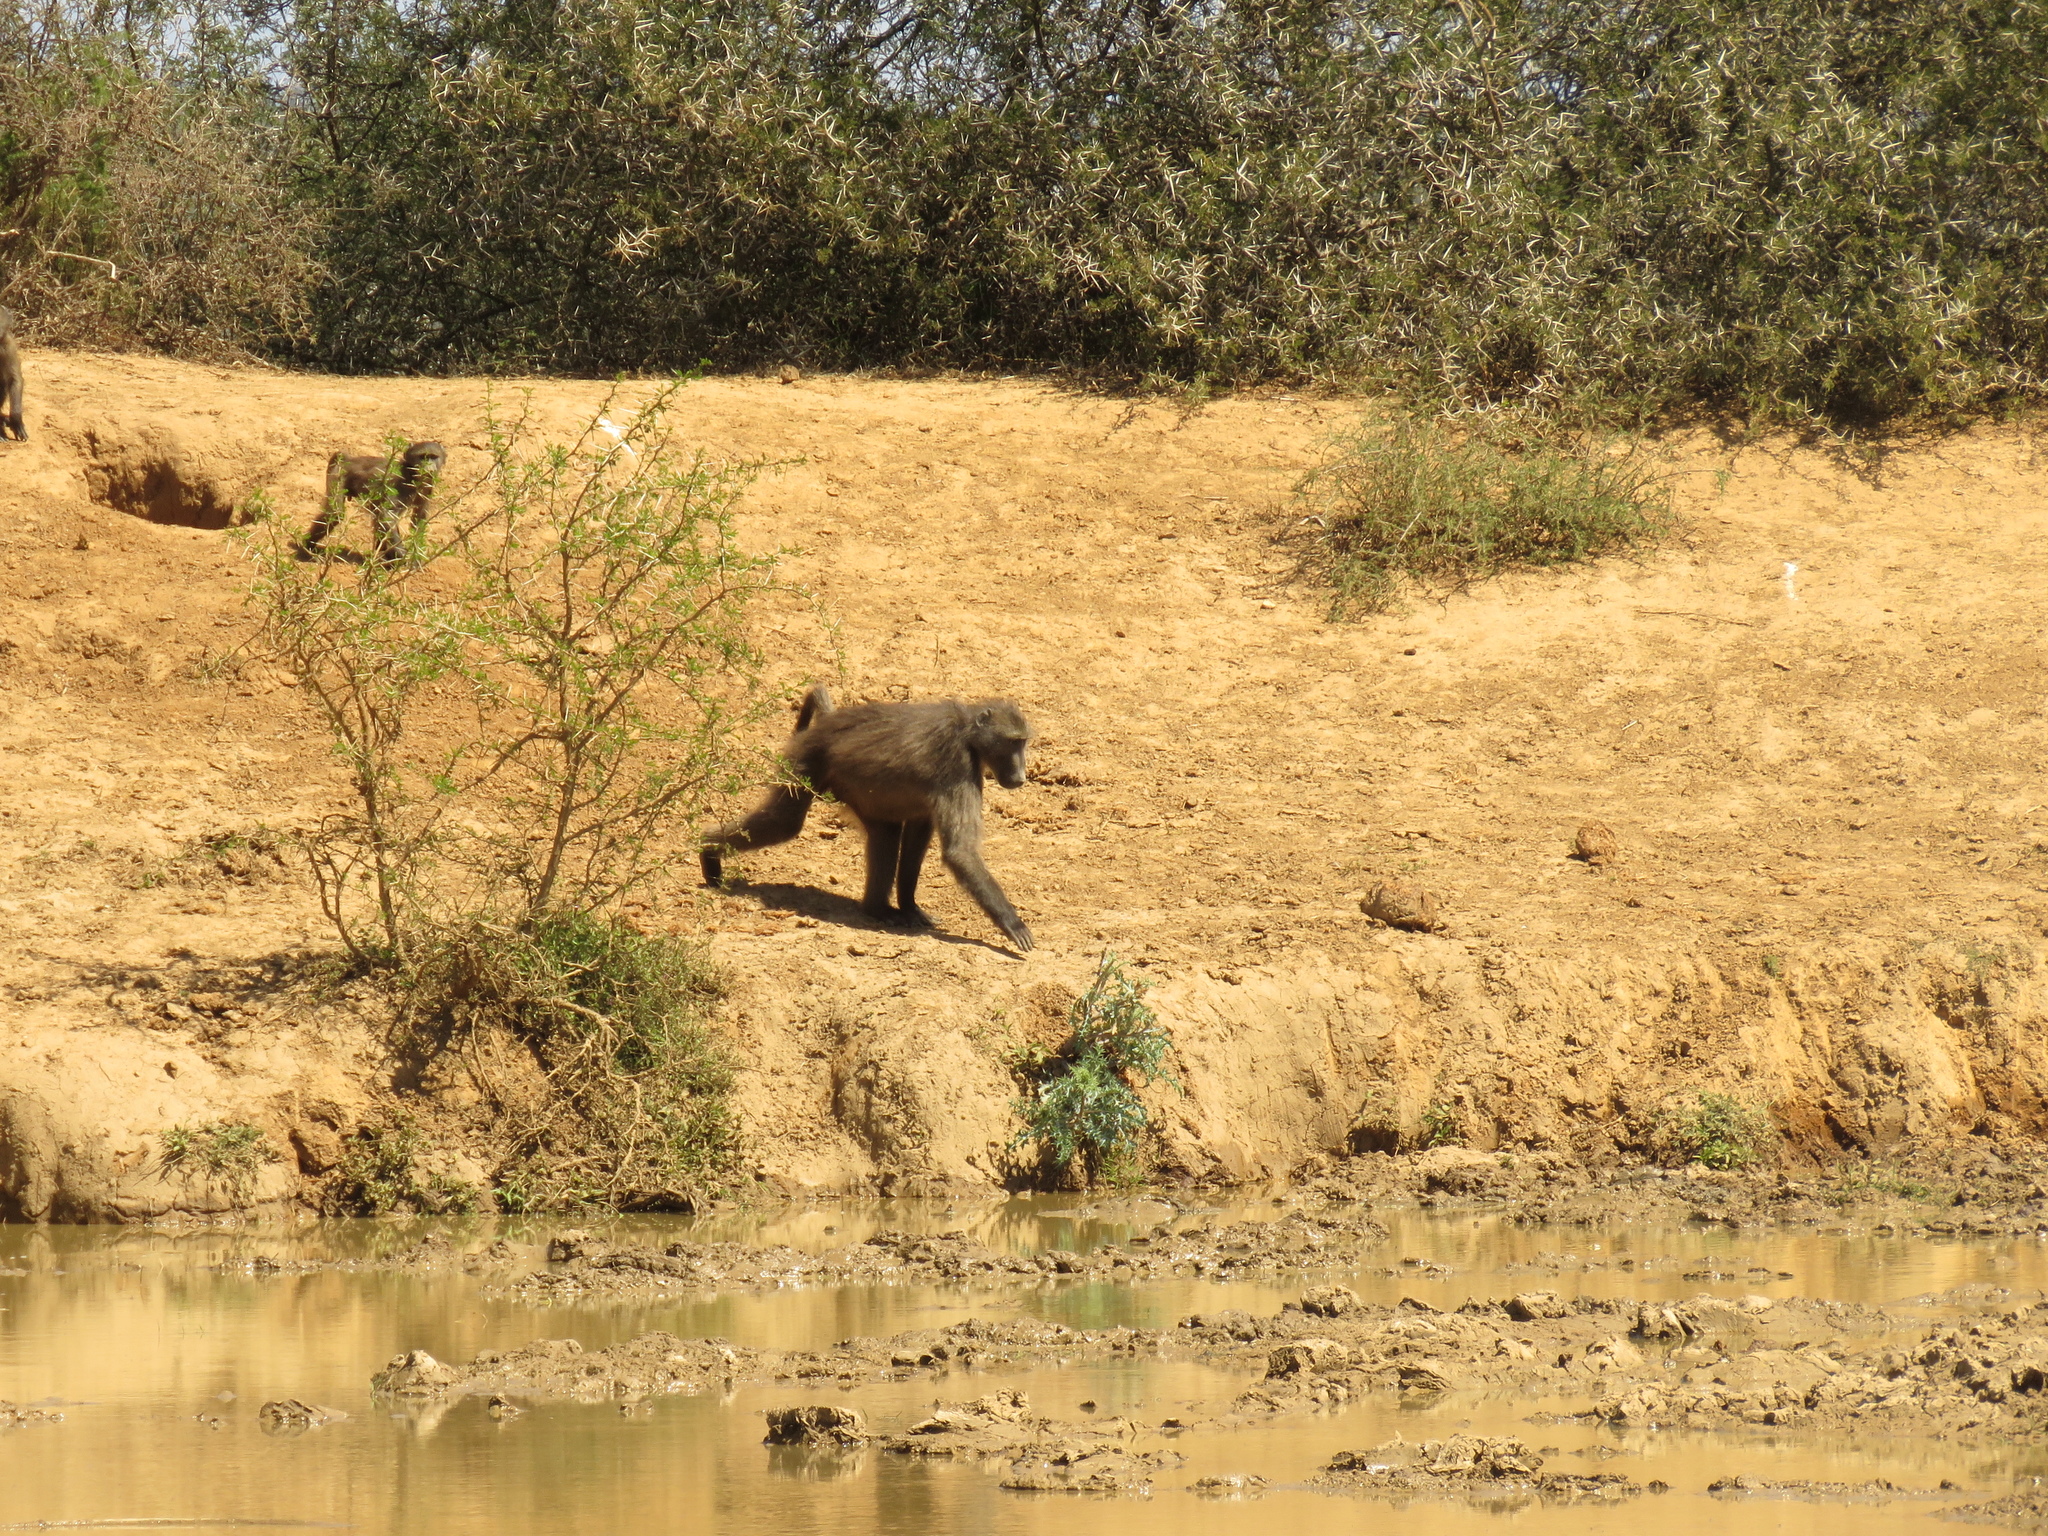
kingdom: Animalia
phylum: Chordata
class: Mammalia
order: Primates
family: Cercopithecidae
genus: Papio
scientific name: Papio ursinus
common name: Chacma baboon
